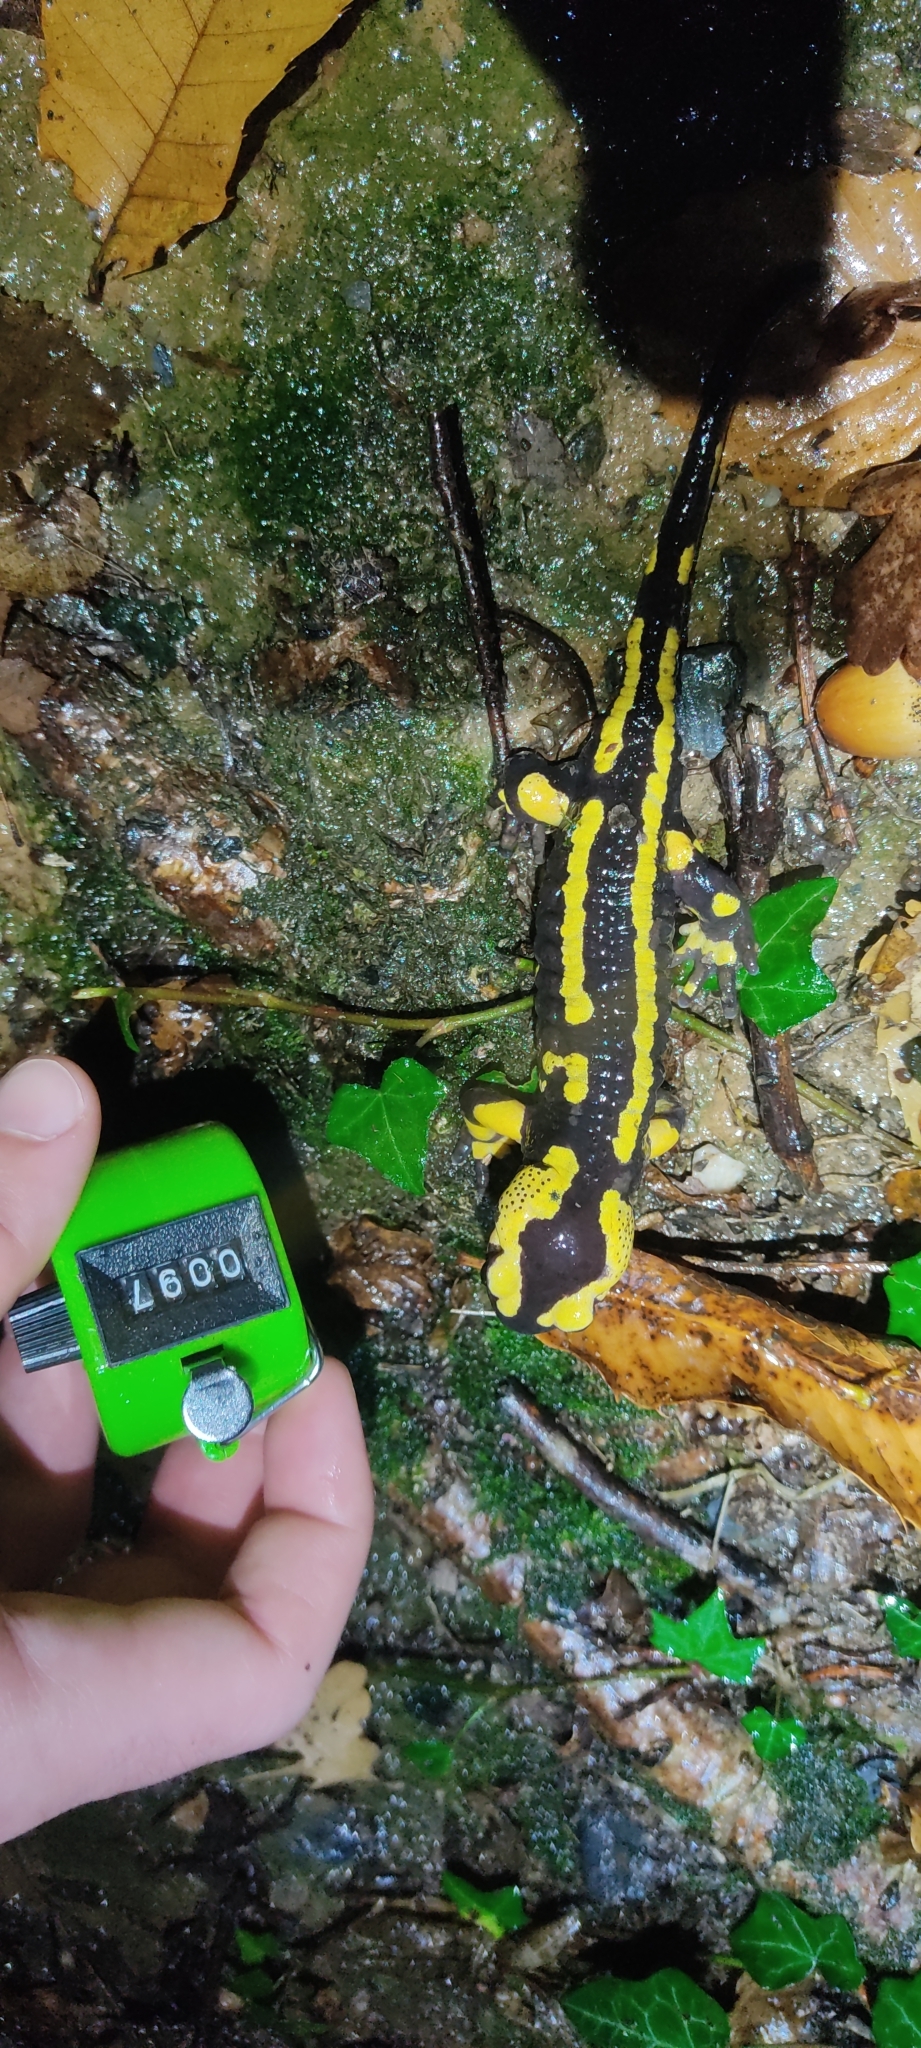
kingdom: Animalia
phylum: Chordata
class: Amphibia
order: Caudata
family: Salamandridae
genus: Salamandra
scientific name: Salamandra salamandra
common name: Fire salamander
